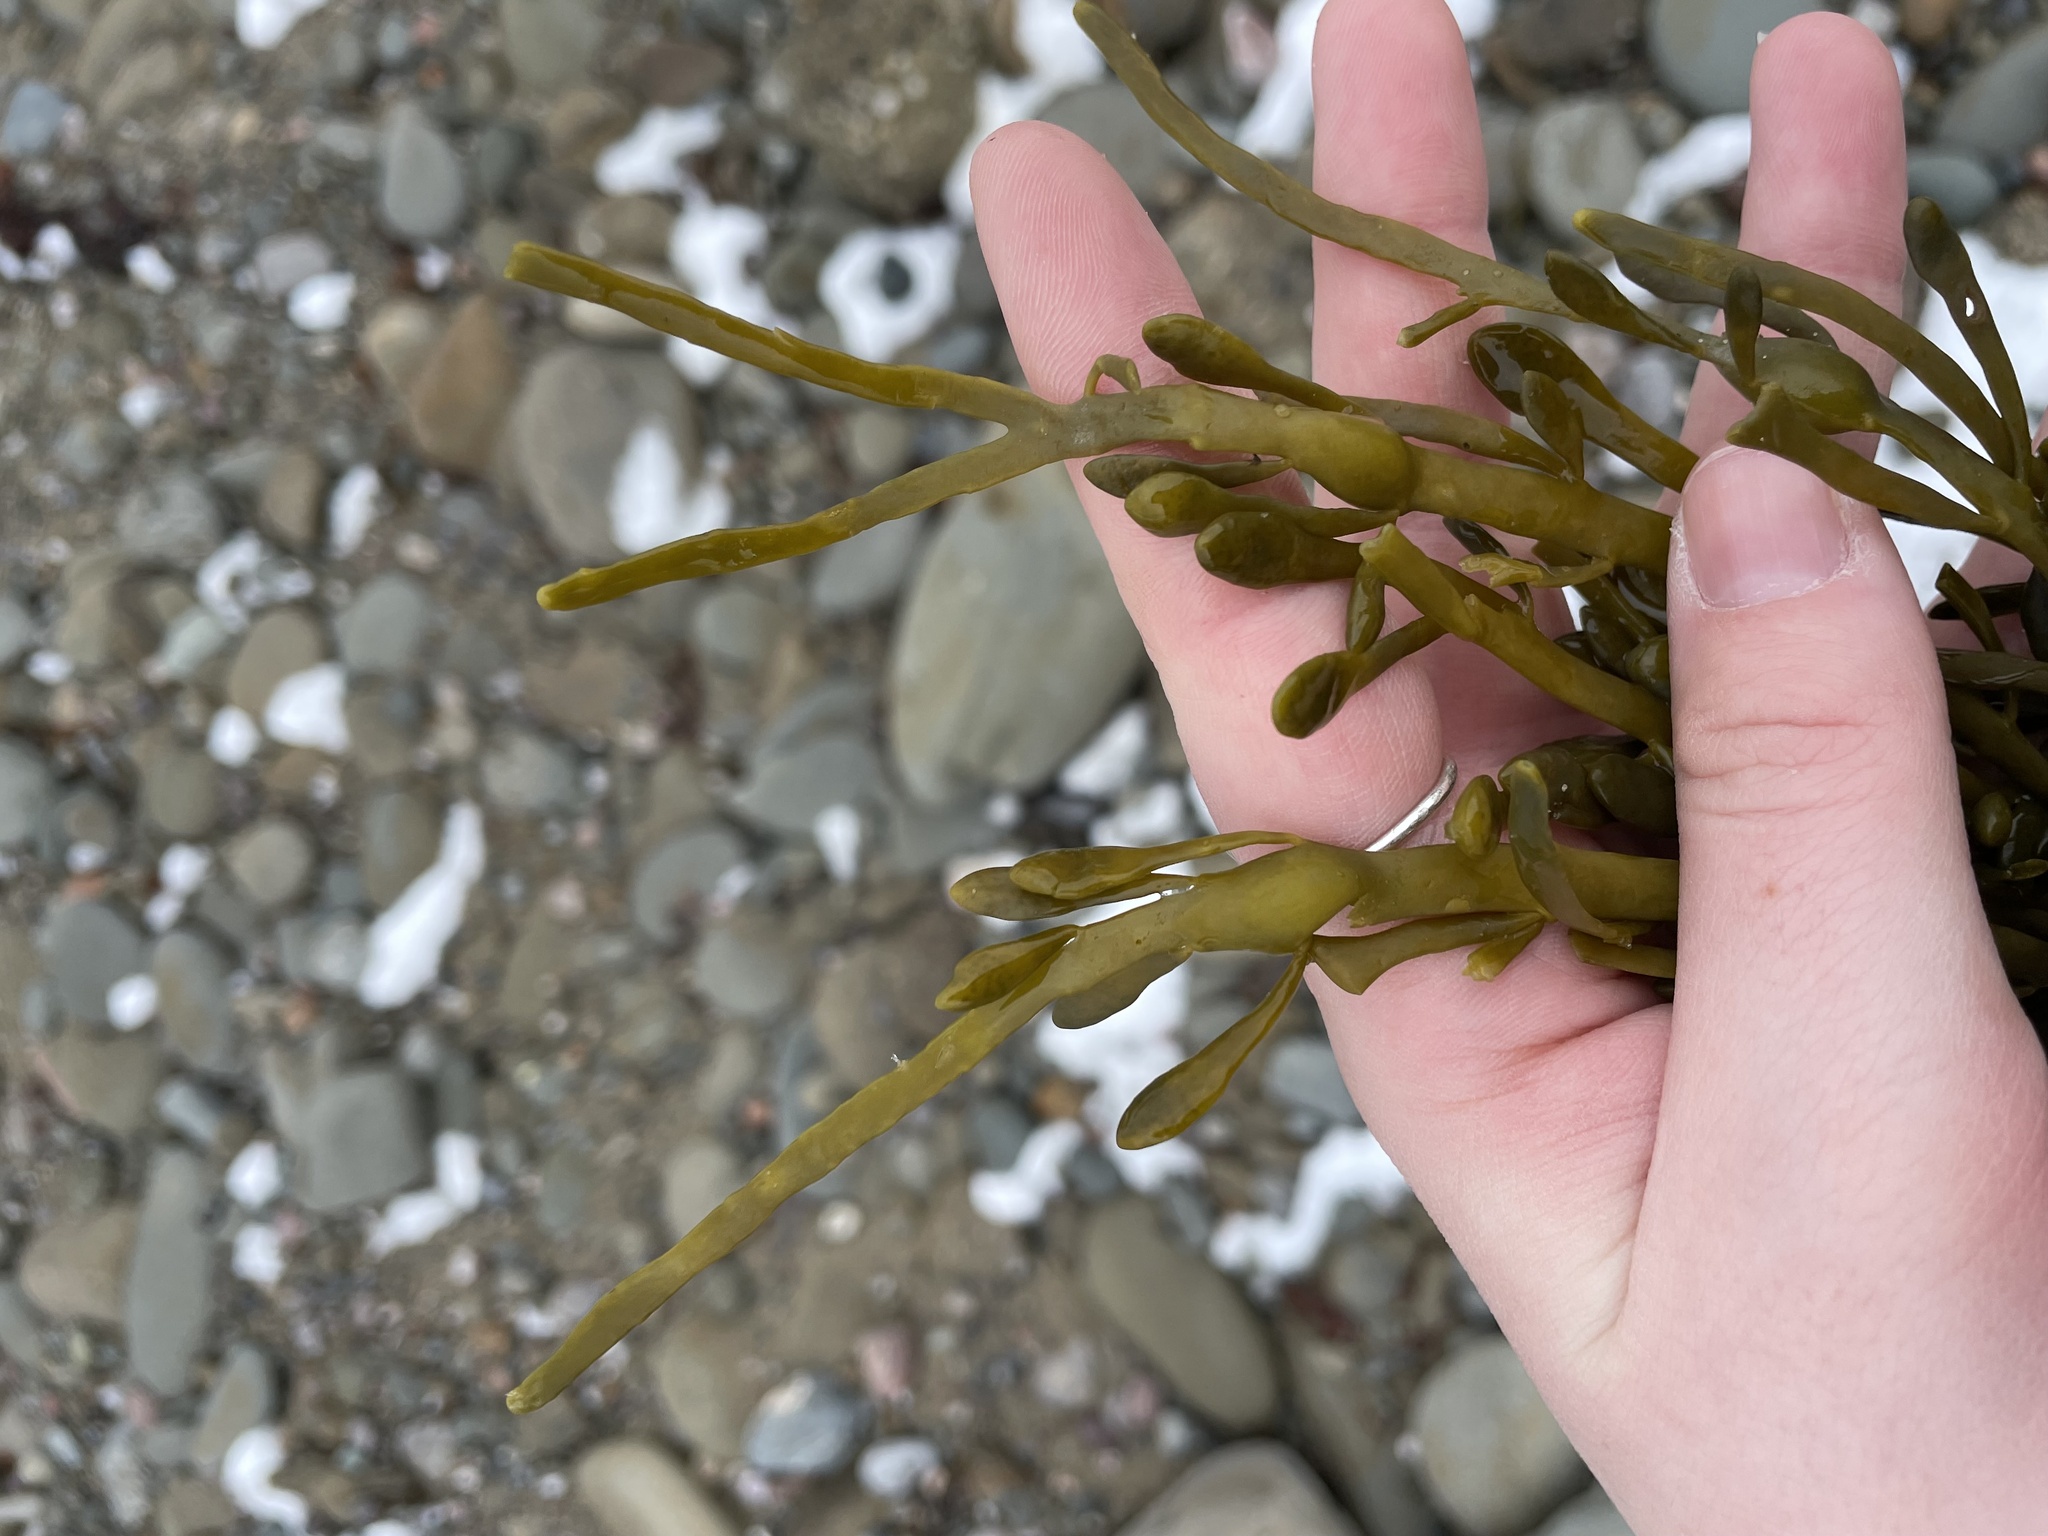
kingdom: Chromista
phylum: Ochrophyta
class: Phaeophyceae
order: Fucales
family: Fucaceae
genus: Ascophyllum
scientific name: Ascophyllum nodosum
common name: Knotted wrack
